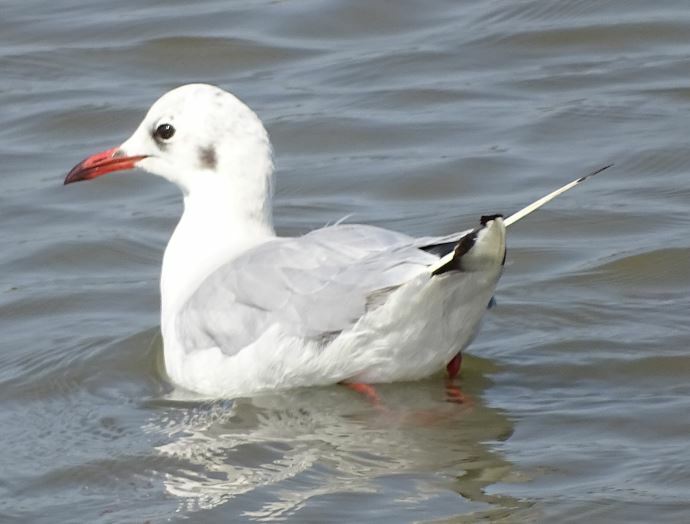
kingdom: Animalia
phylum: Chordata
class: Aves
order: Charadriiformes
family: Laridae
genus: Chroicocephalus
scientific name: Chroicocephalus ridibundus
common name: Black-headed gull
